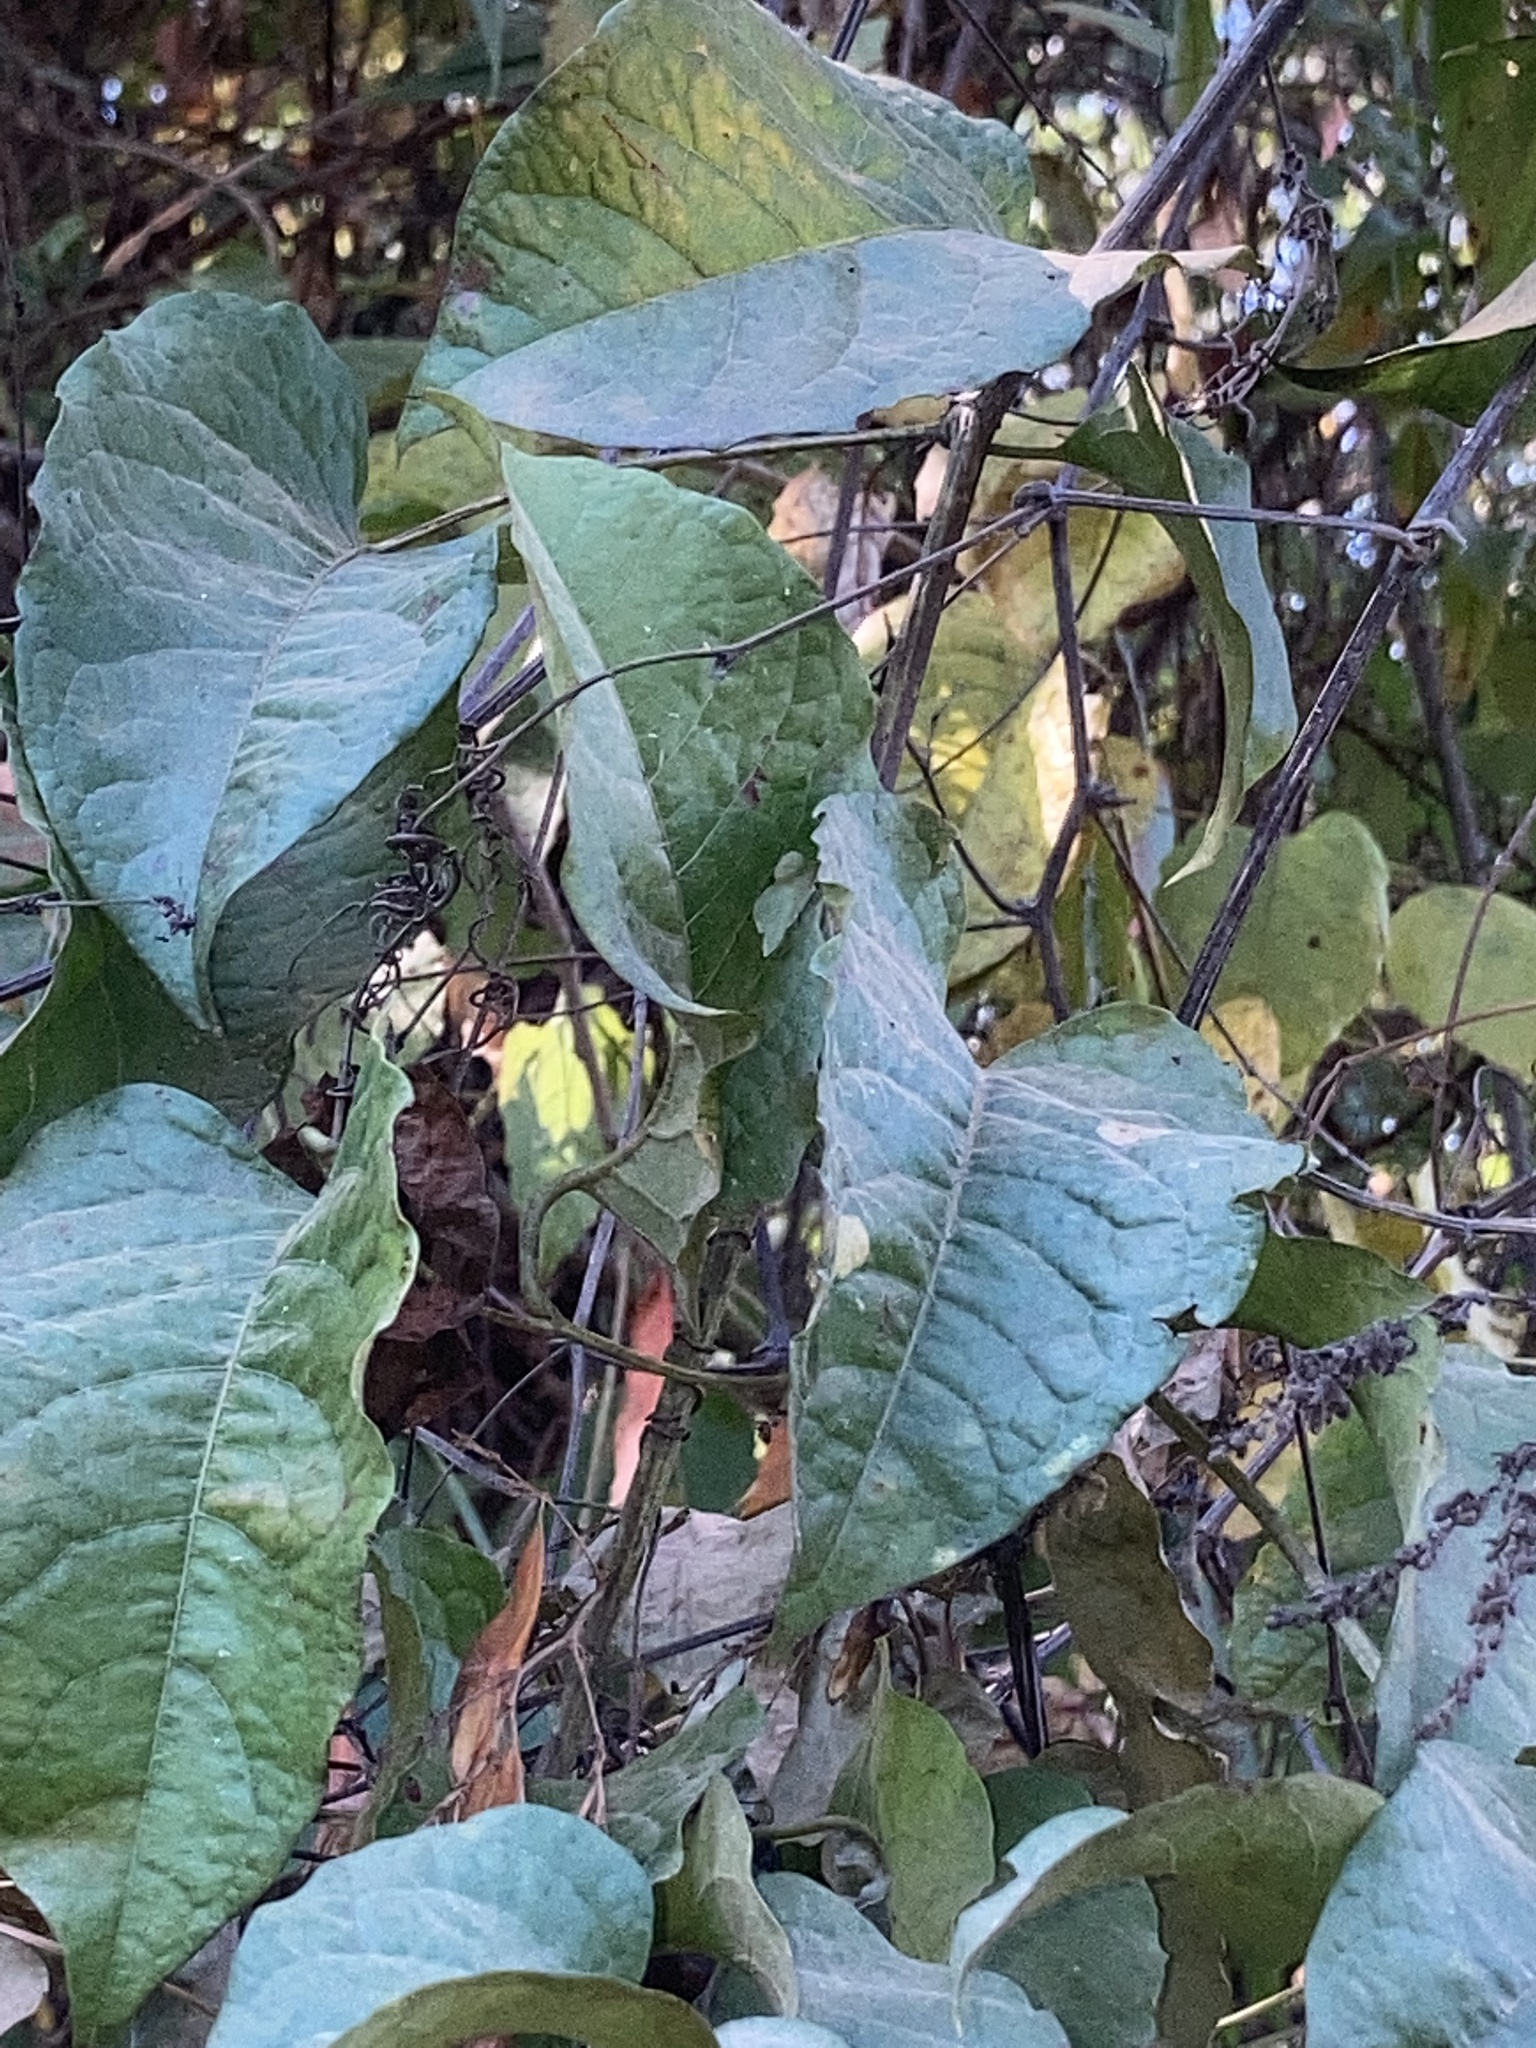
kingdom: Plantae
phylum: Tracheophyta
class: Magnoliopsida
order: Caryophyllales
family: Polygonaceae
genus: Brunnichia
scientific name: Brunnichia ovata
